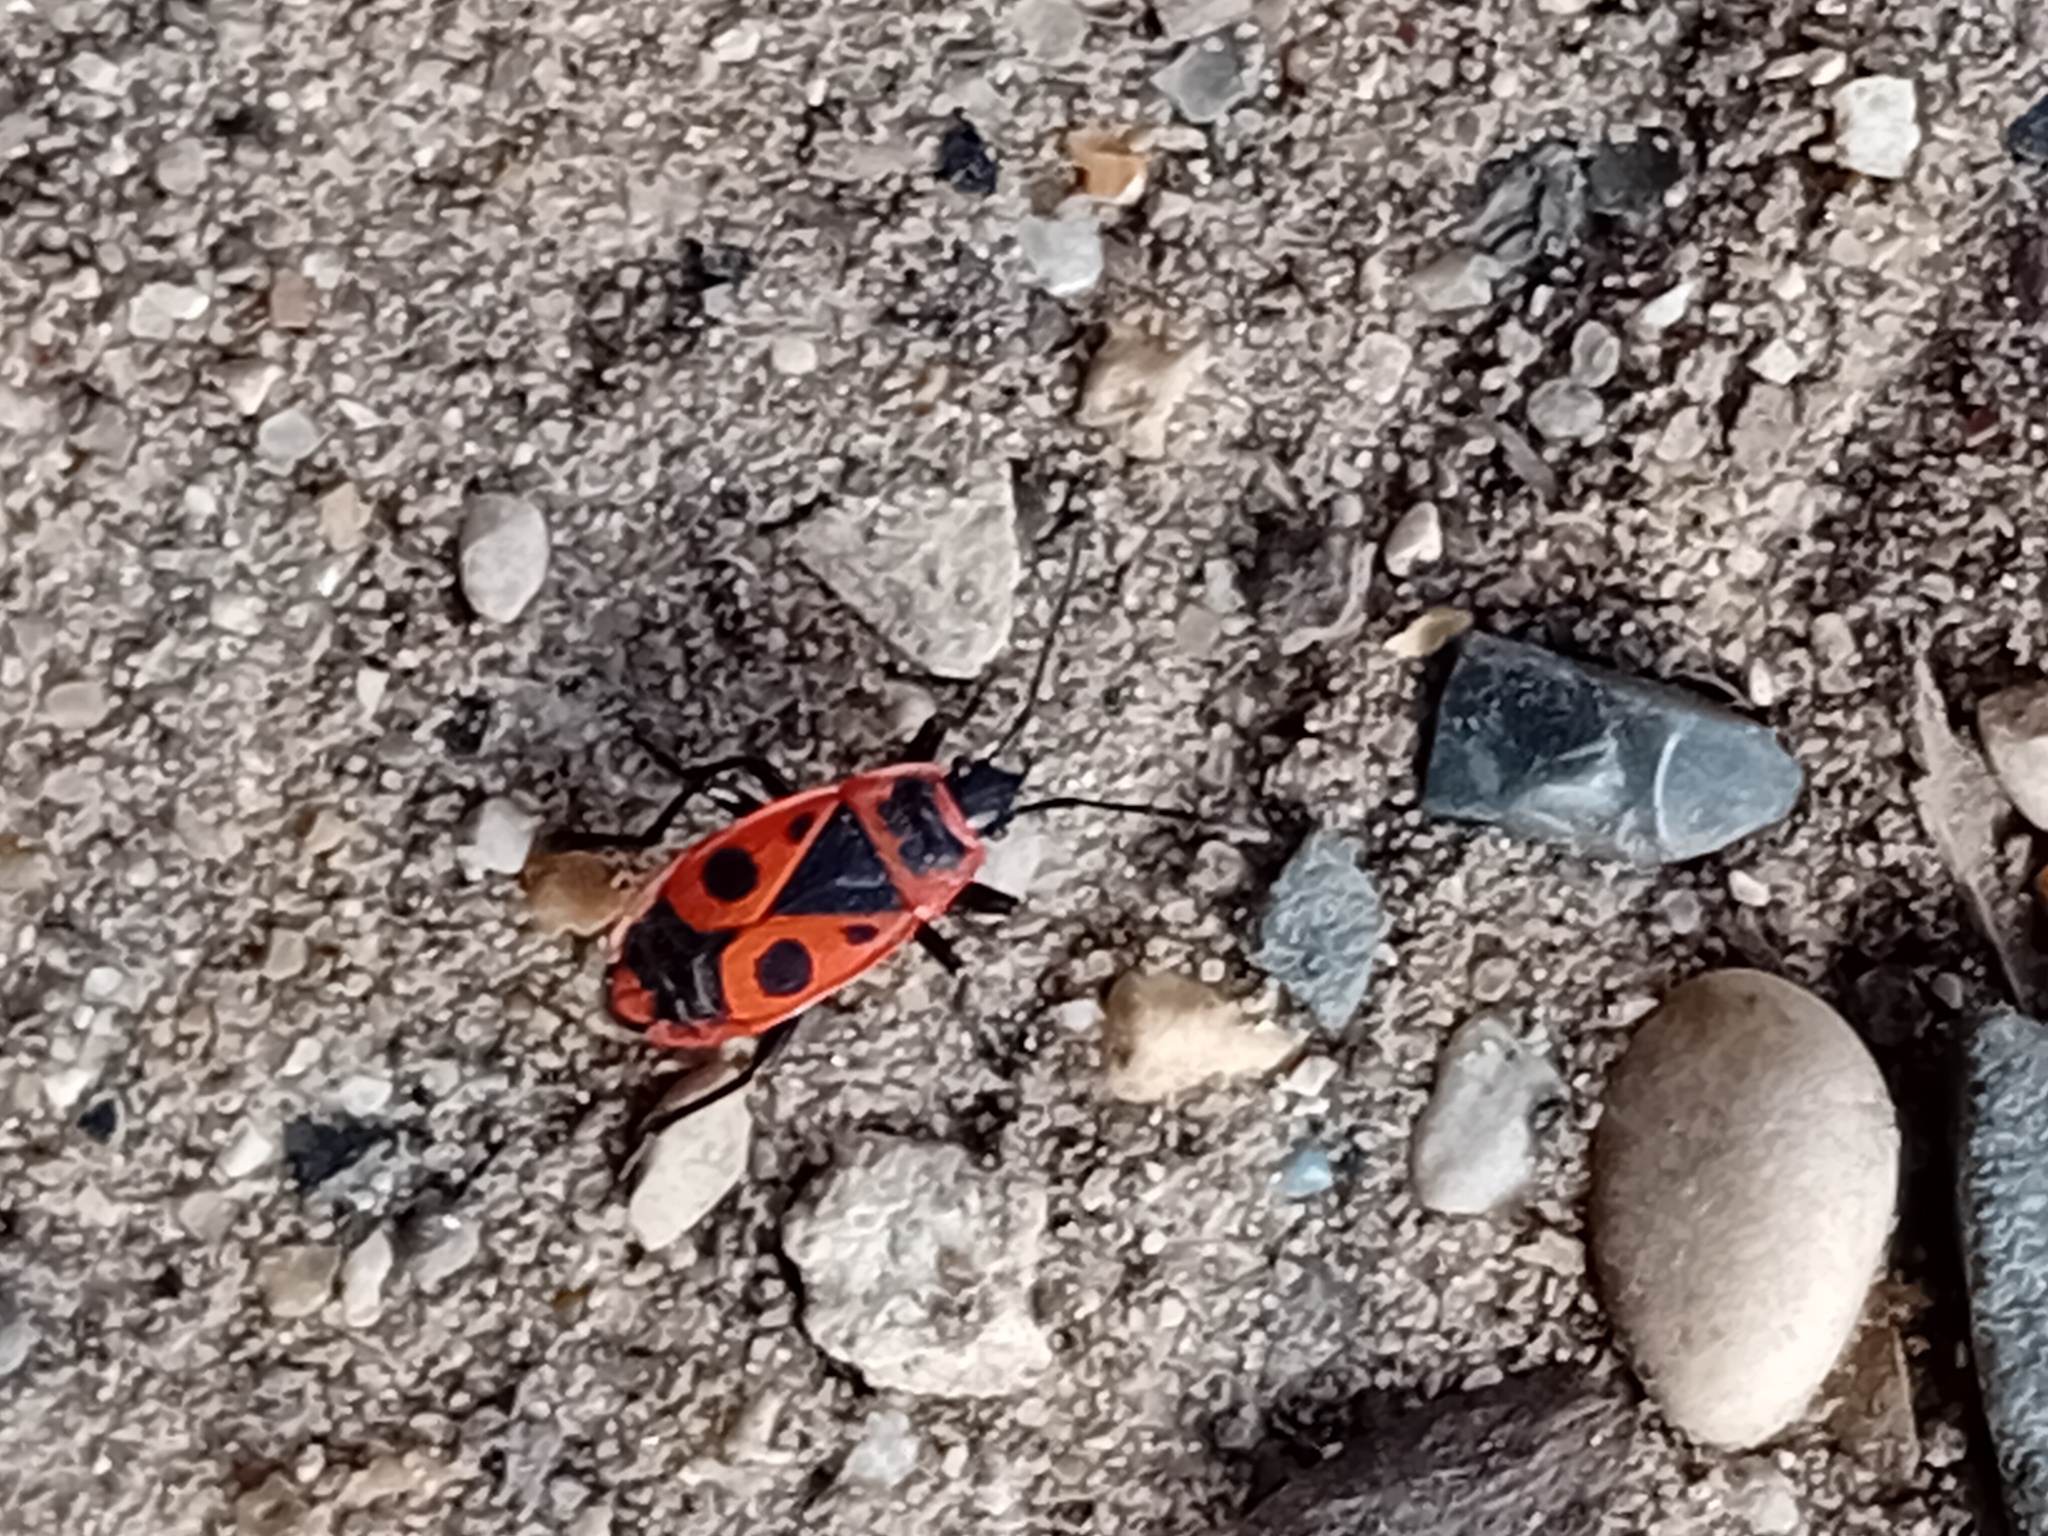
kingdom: Animalia
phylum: Arthropoda
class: Insecta
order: Hemiptera
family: Pyrrhocoridae
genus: Pyrrhocoris
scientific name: Pyrrhocoris apterus
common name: Firebug
